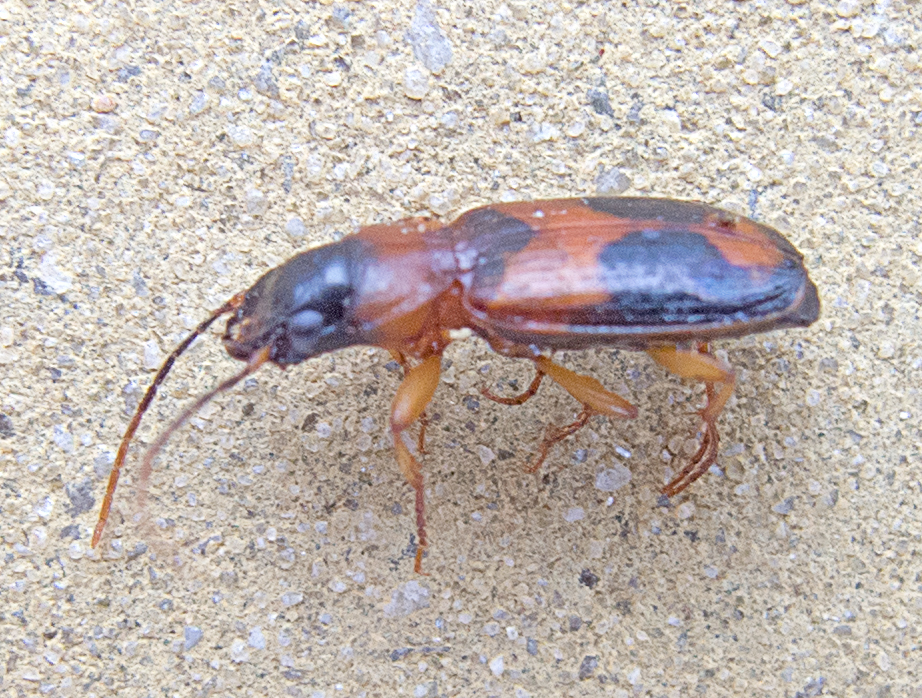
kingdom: Animalia
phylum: Arthropoda
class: Insecta
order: Coleoptera
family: Carabidae
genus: Badister
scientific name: Badister unipustulatus
